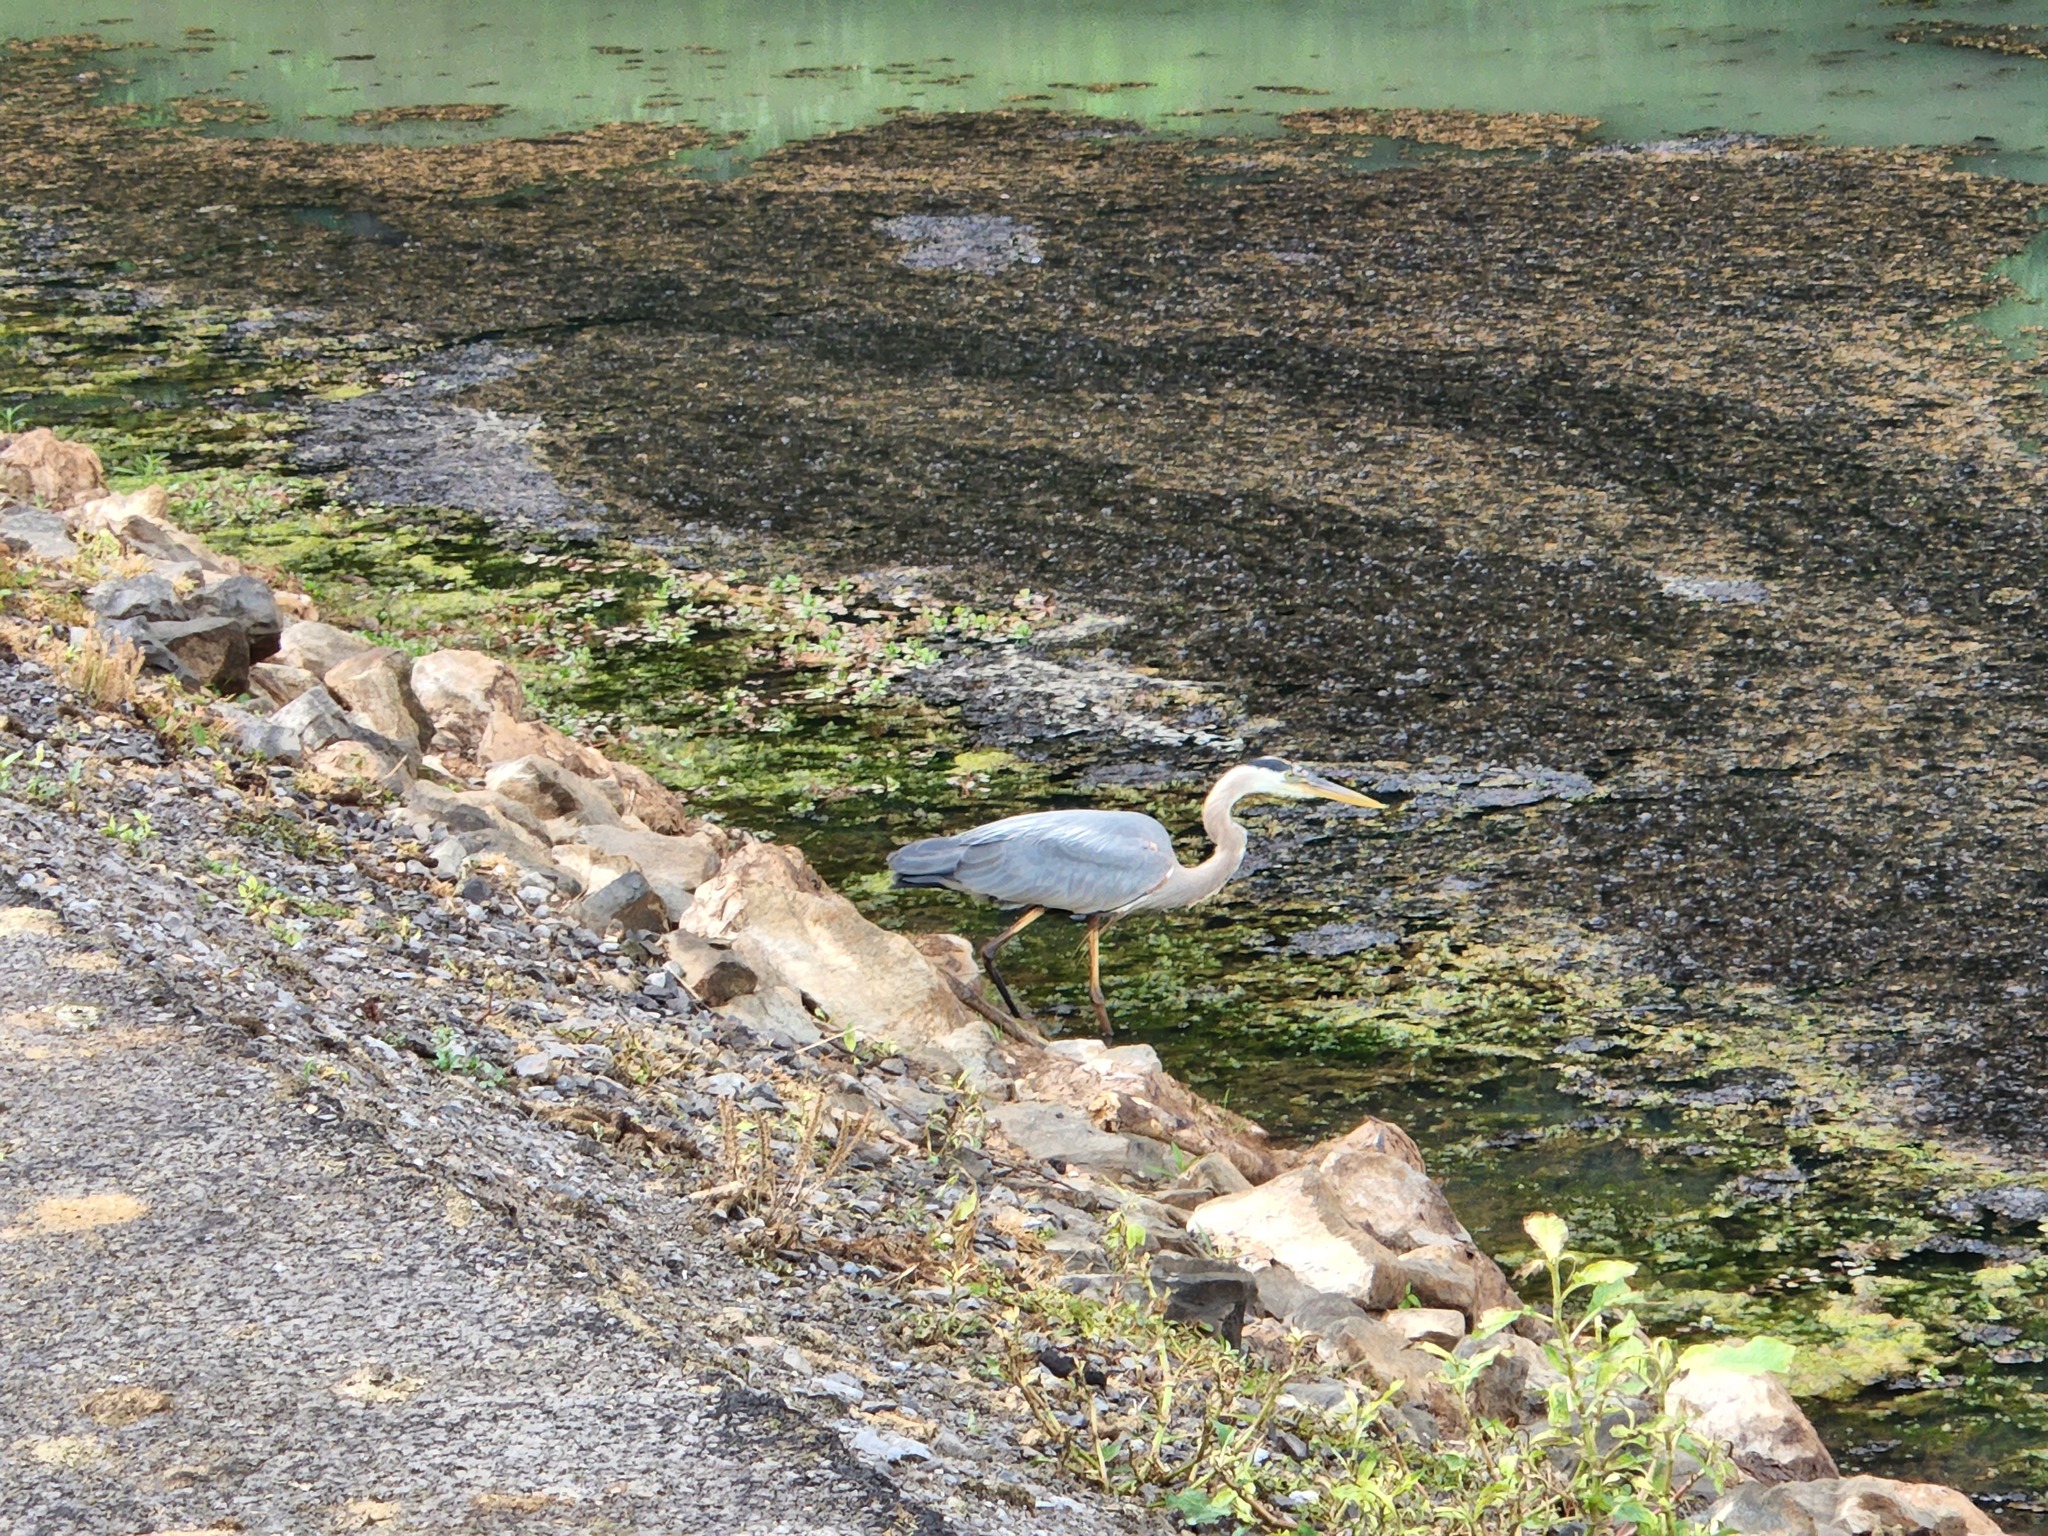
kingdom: Animalia
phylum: Chordata
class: Aves
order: Pelecaniformes
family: Ardeidae
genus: Ardea
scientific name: Ardea herodias
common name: Great blue heron
